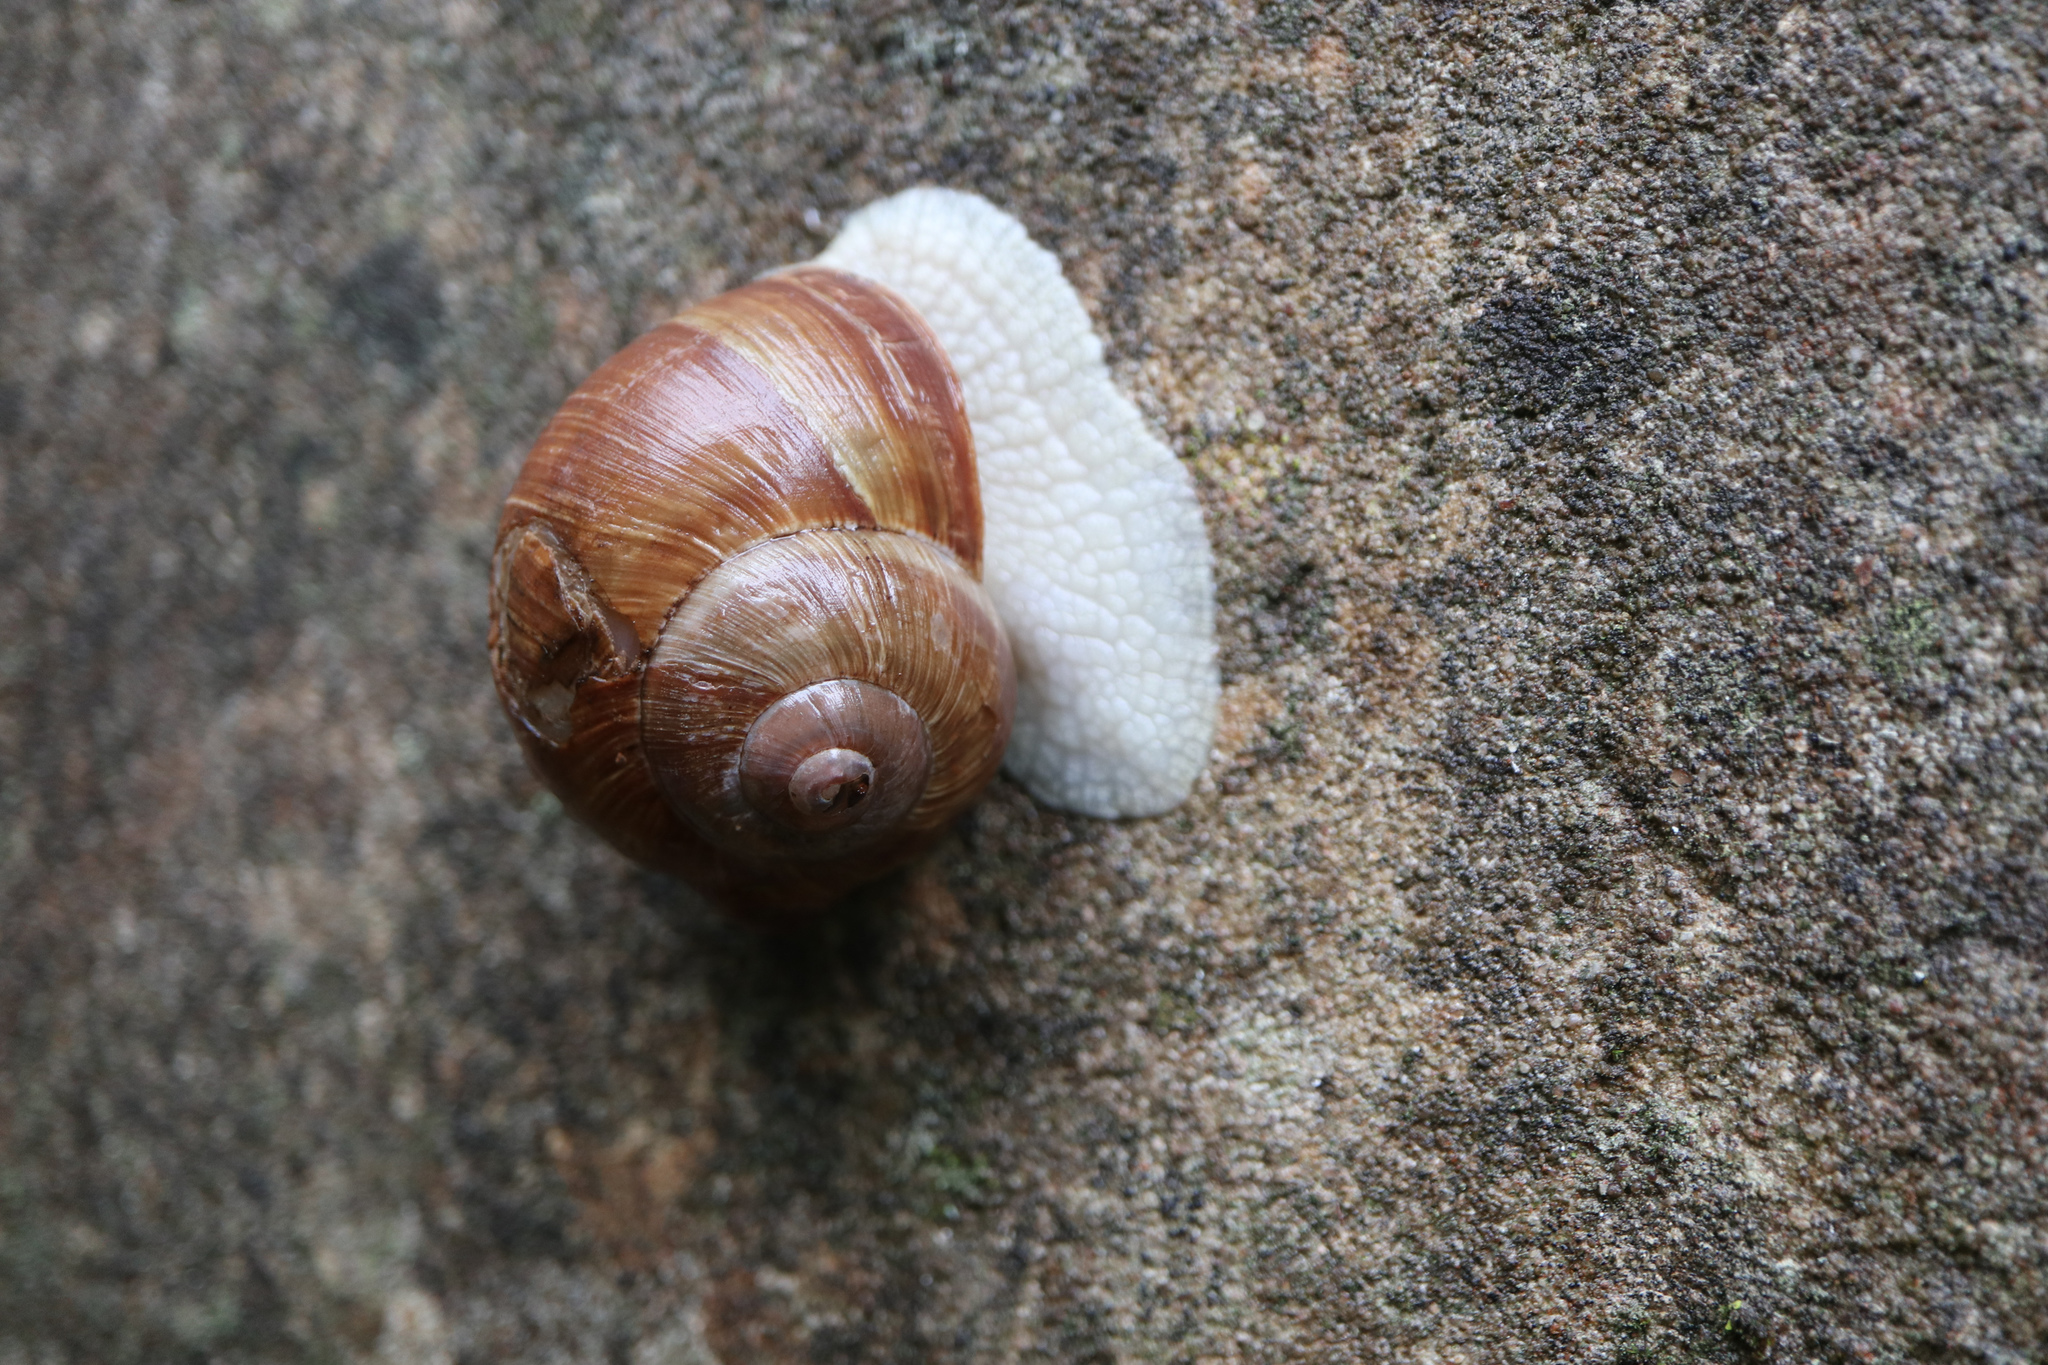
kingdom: Animalia
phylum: Mollusca
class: Gastropoda
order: Stylommatophora
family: Helicidae
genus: Helix
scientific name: Helix pomatia
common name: Roman snail
